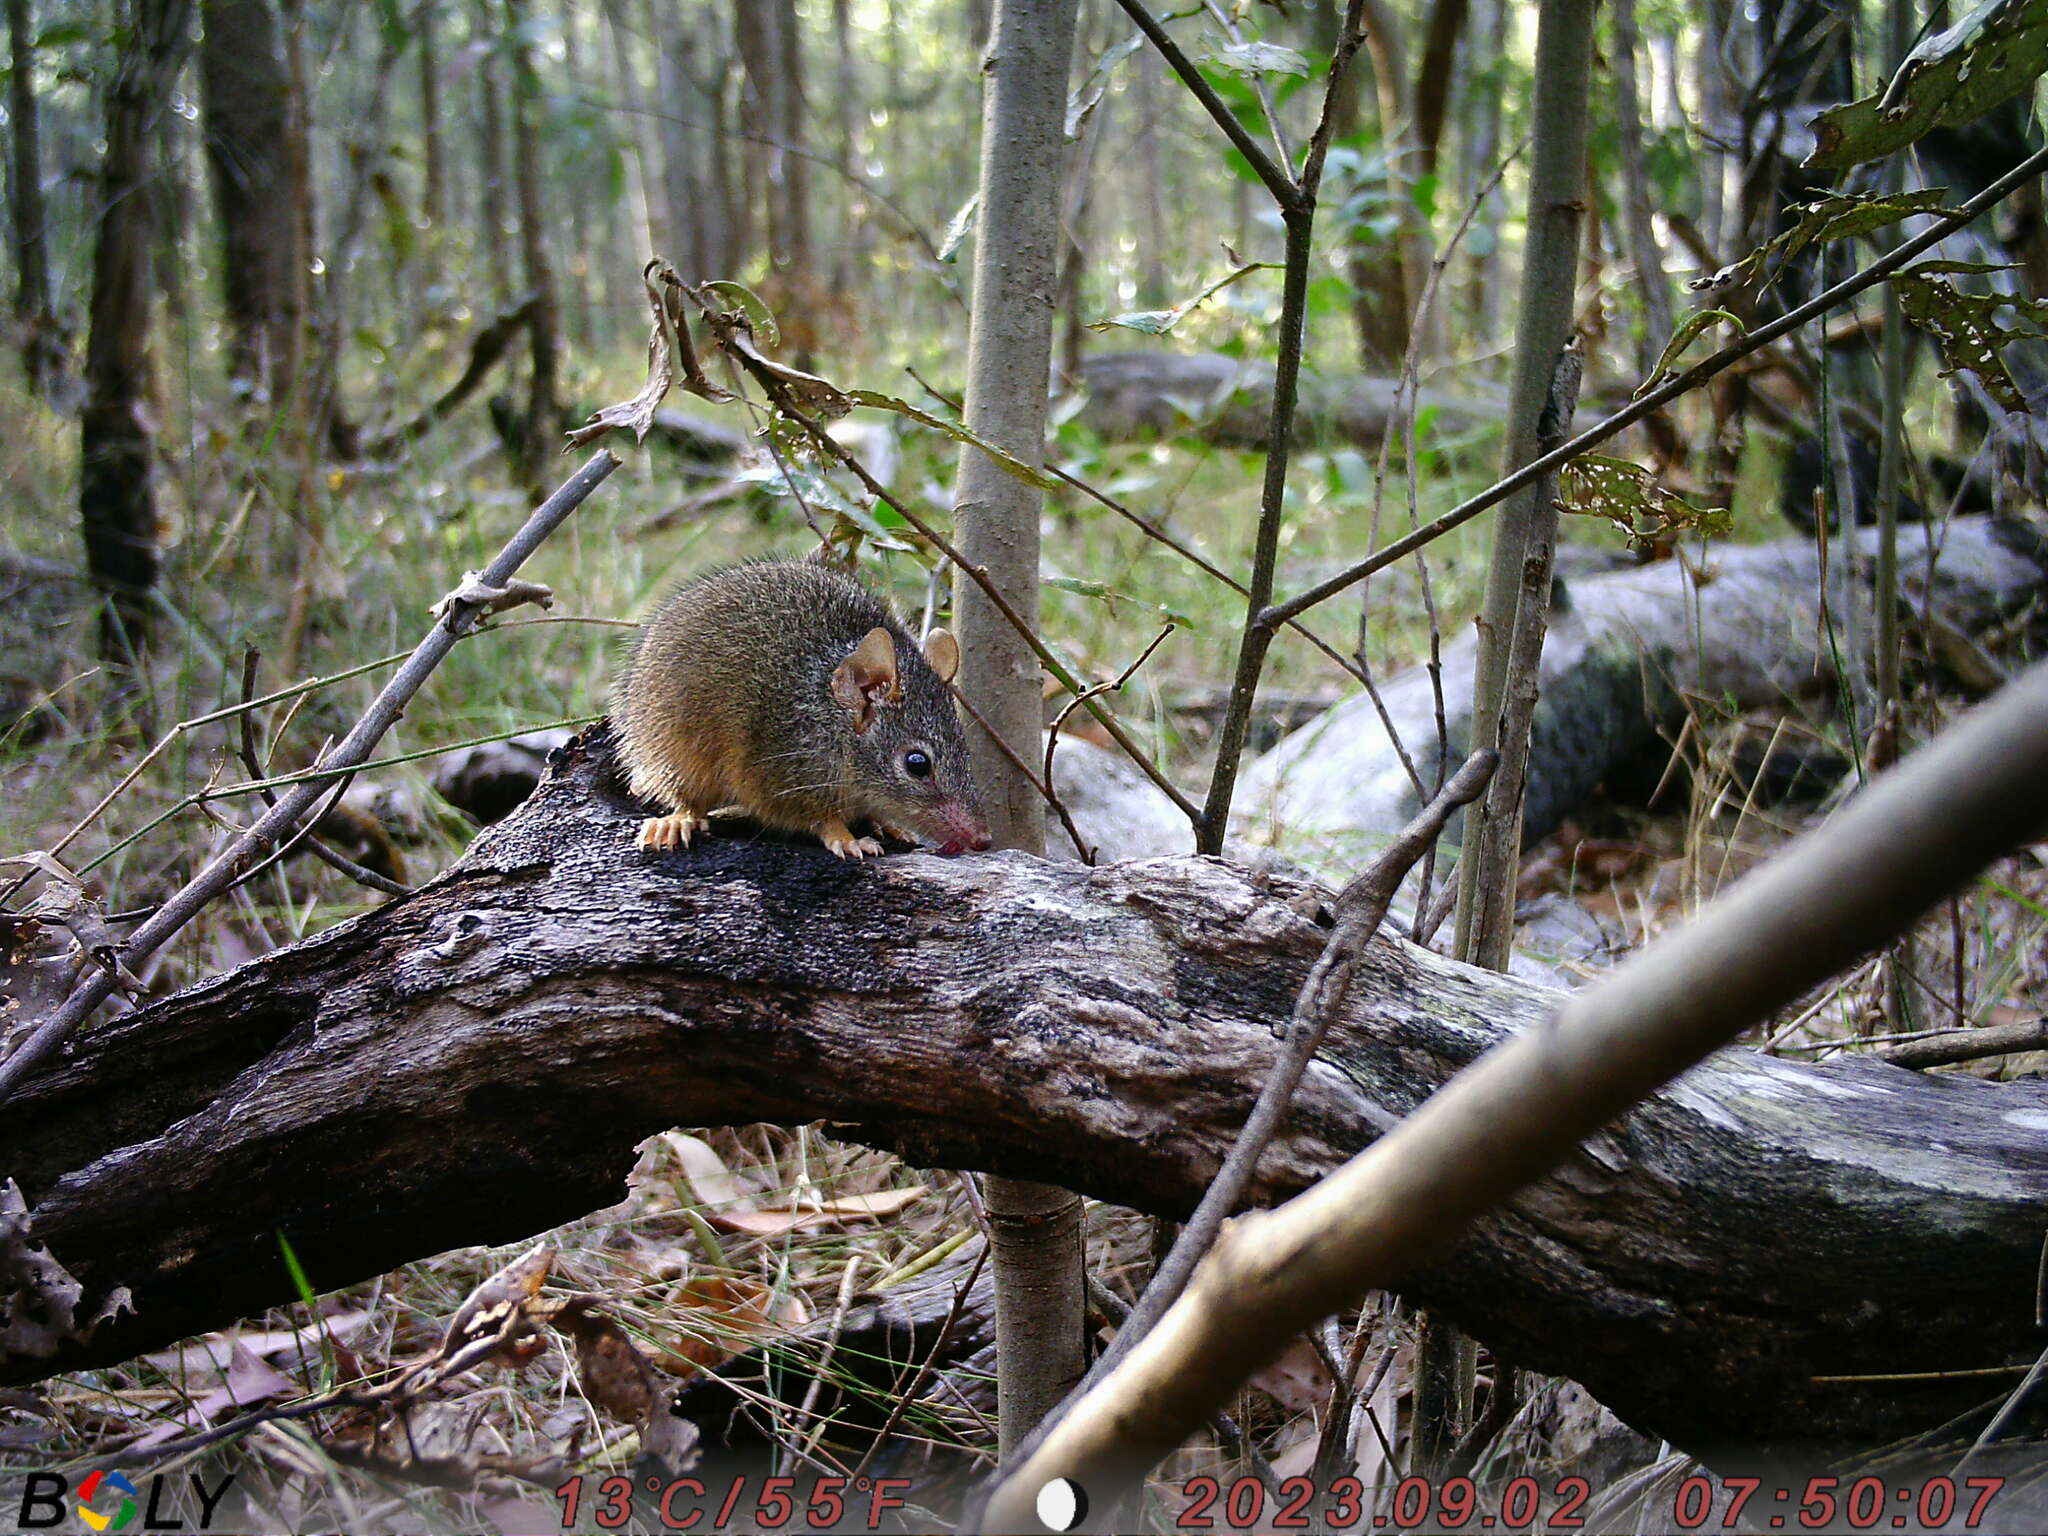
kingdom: Animalia
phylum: Chordata
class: Mammalia
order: Dasyuromorphia
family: Dasyuridae
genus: Antechinus
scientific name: Antechinus flavipes
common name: Yellow-footed antechinus
